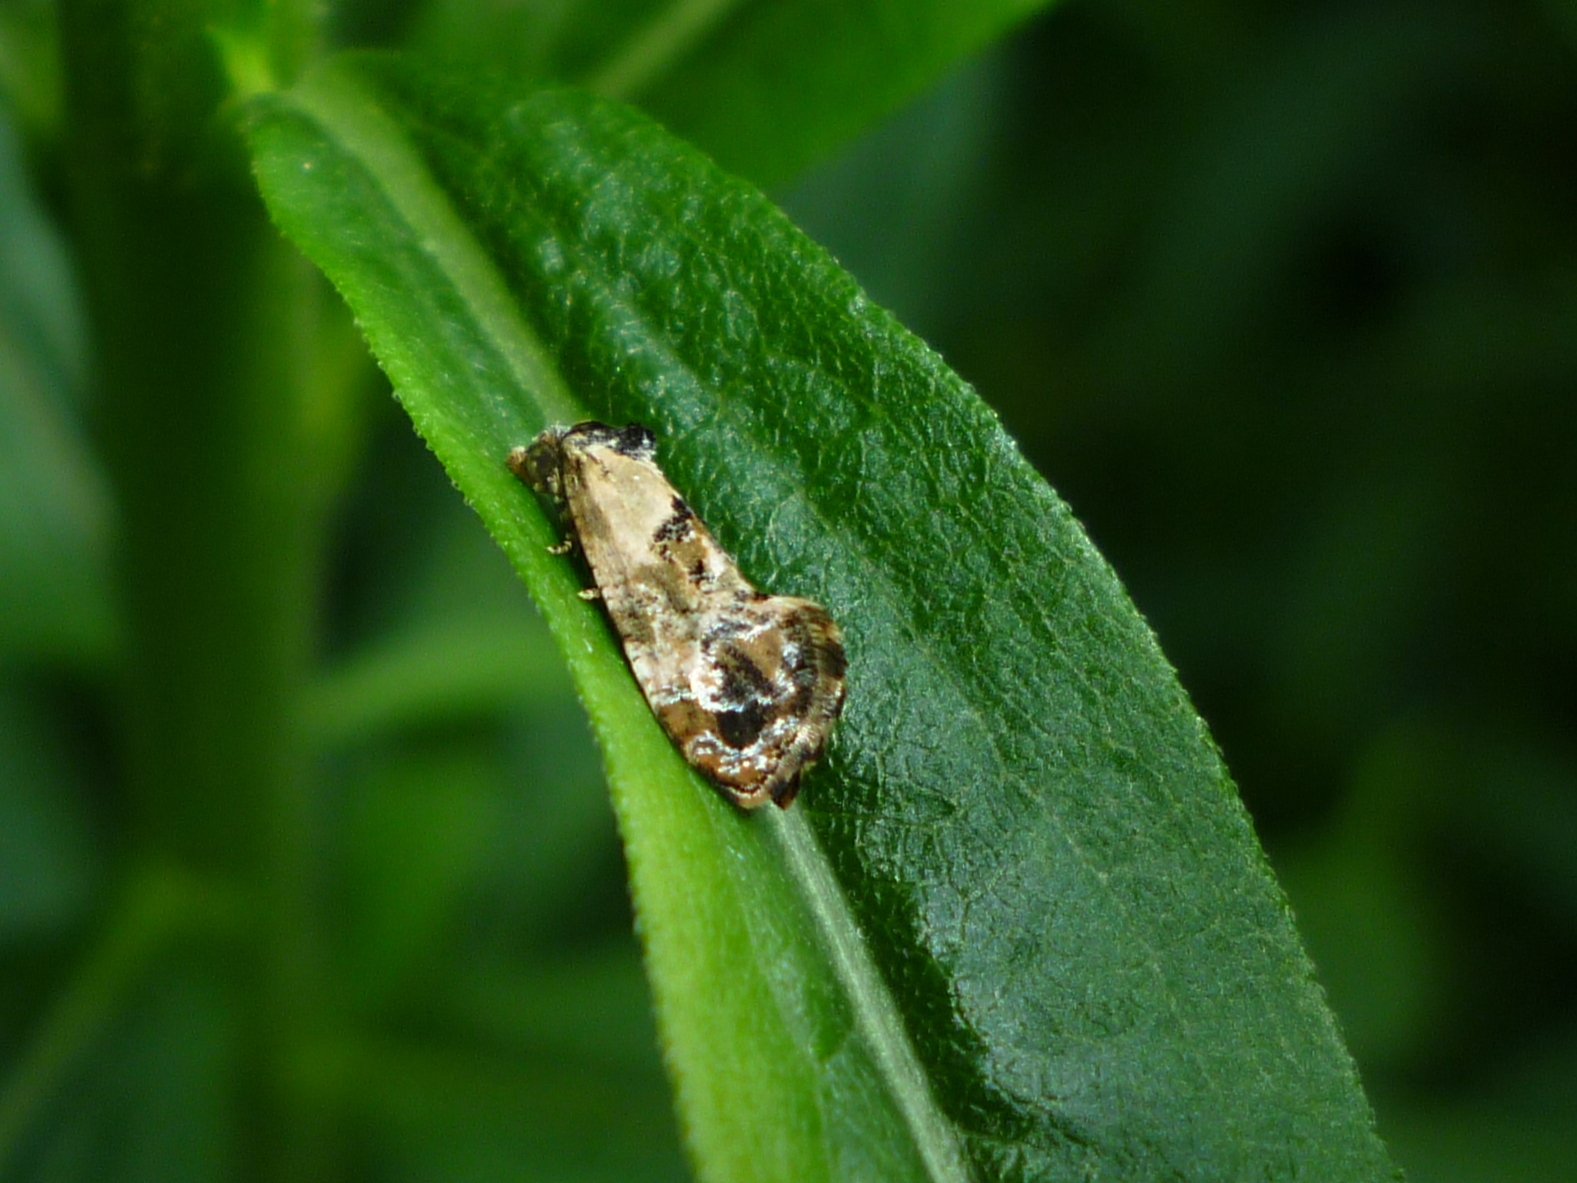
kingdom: Animalia
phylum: Arthropoda
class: Insecta
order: Lepidoptera
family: Tortricidae
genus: Cochylis
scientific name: Cochylis Cochylichroa hoffmanana
